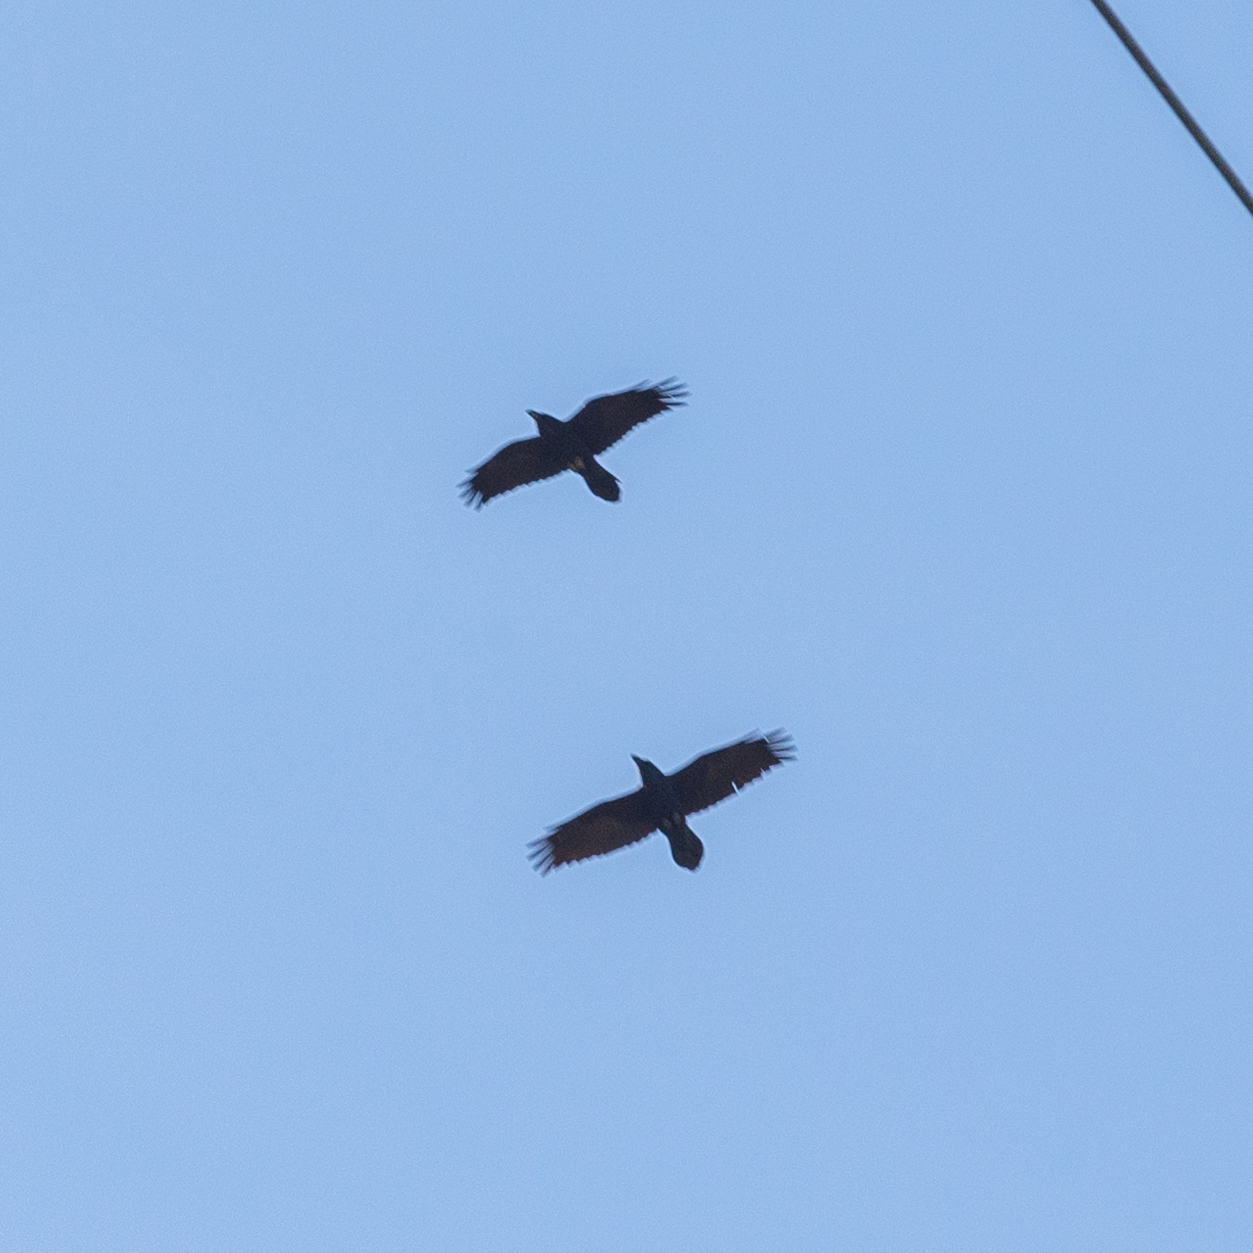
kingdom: Animalia
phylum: Chordata
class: Aves
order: Passeriformes
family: Corvidae
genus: Corvus
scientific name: Corvus corax
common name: Common raven
